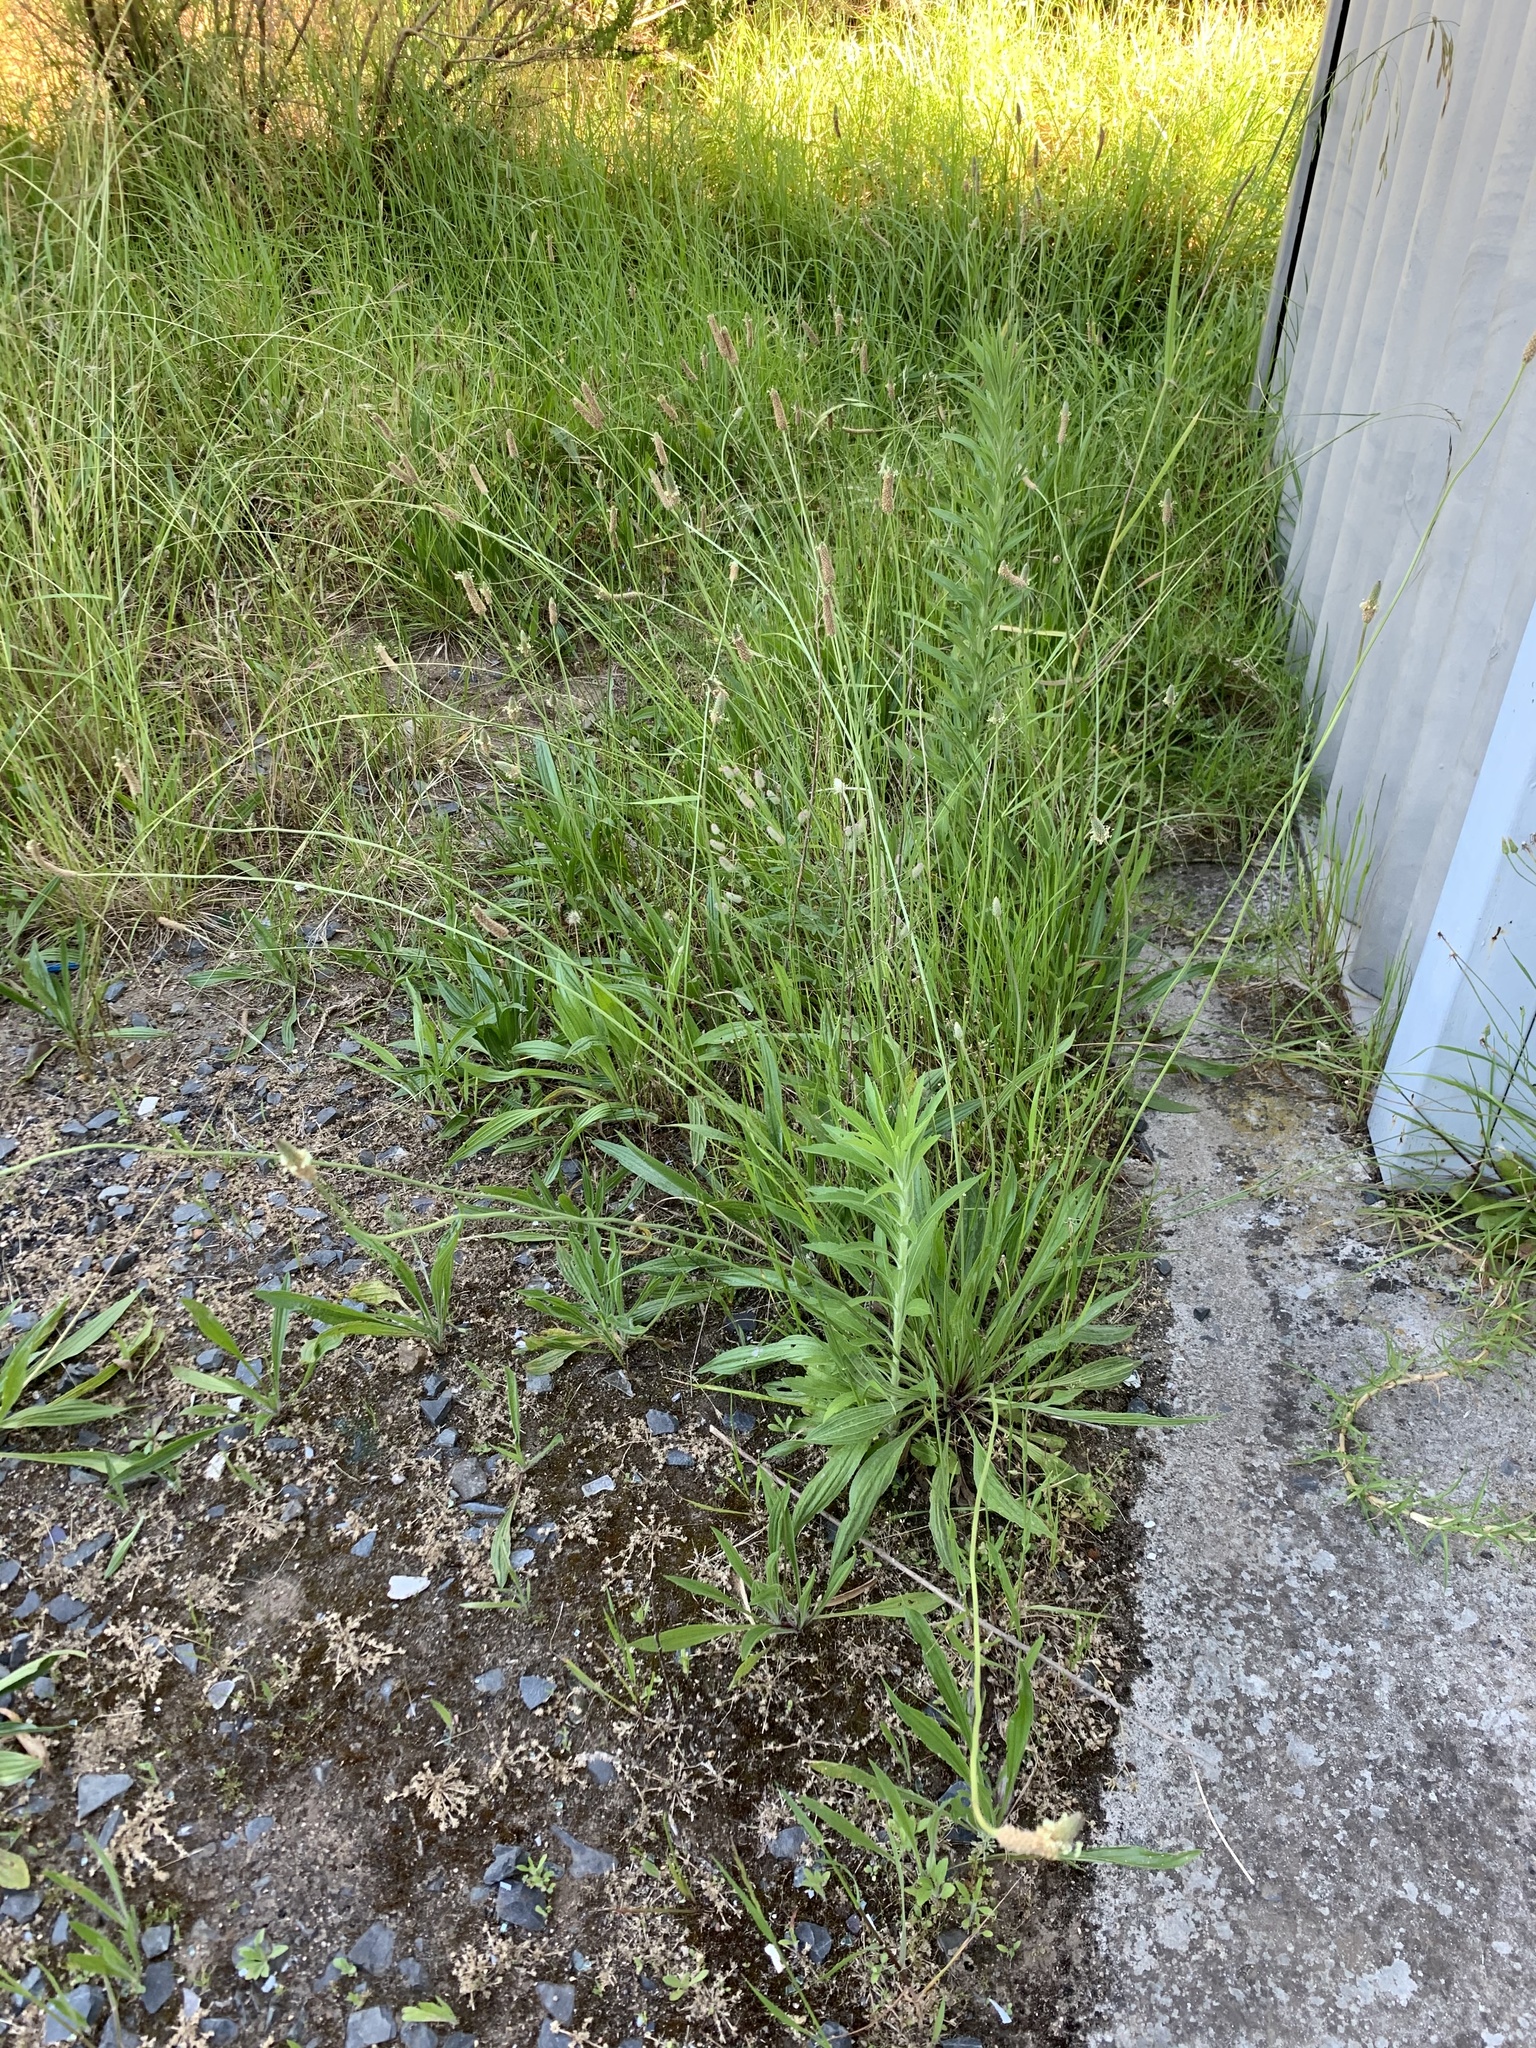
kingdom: Plantae
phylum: Tracheophyta
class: Magnoliopsida
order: Lamiales
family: Plantaginaceae
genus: Plantago
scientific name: Plantago lanceolata
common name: Ribwort plantain
